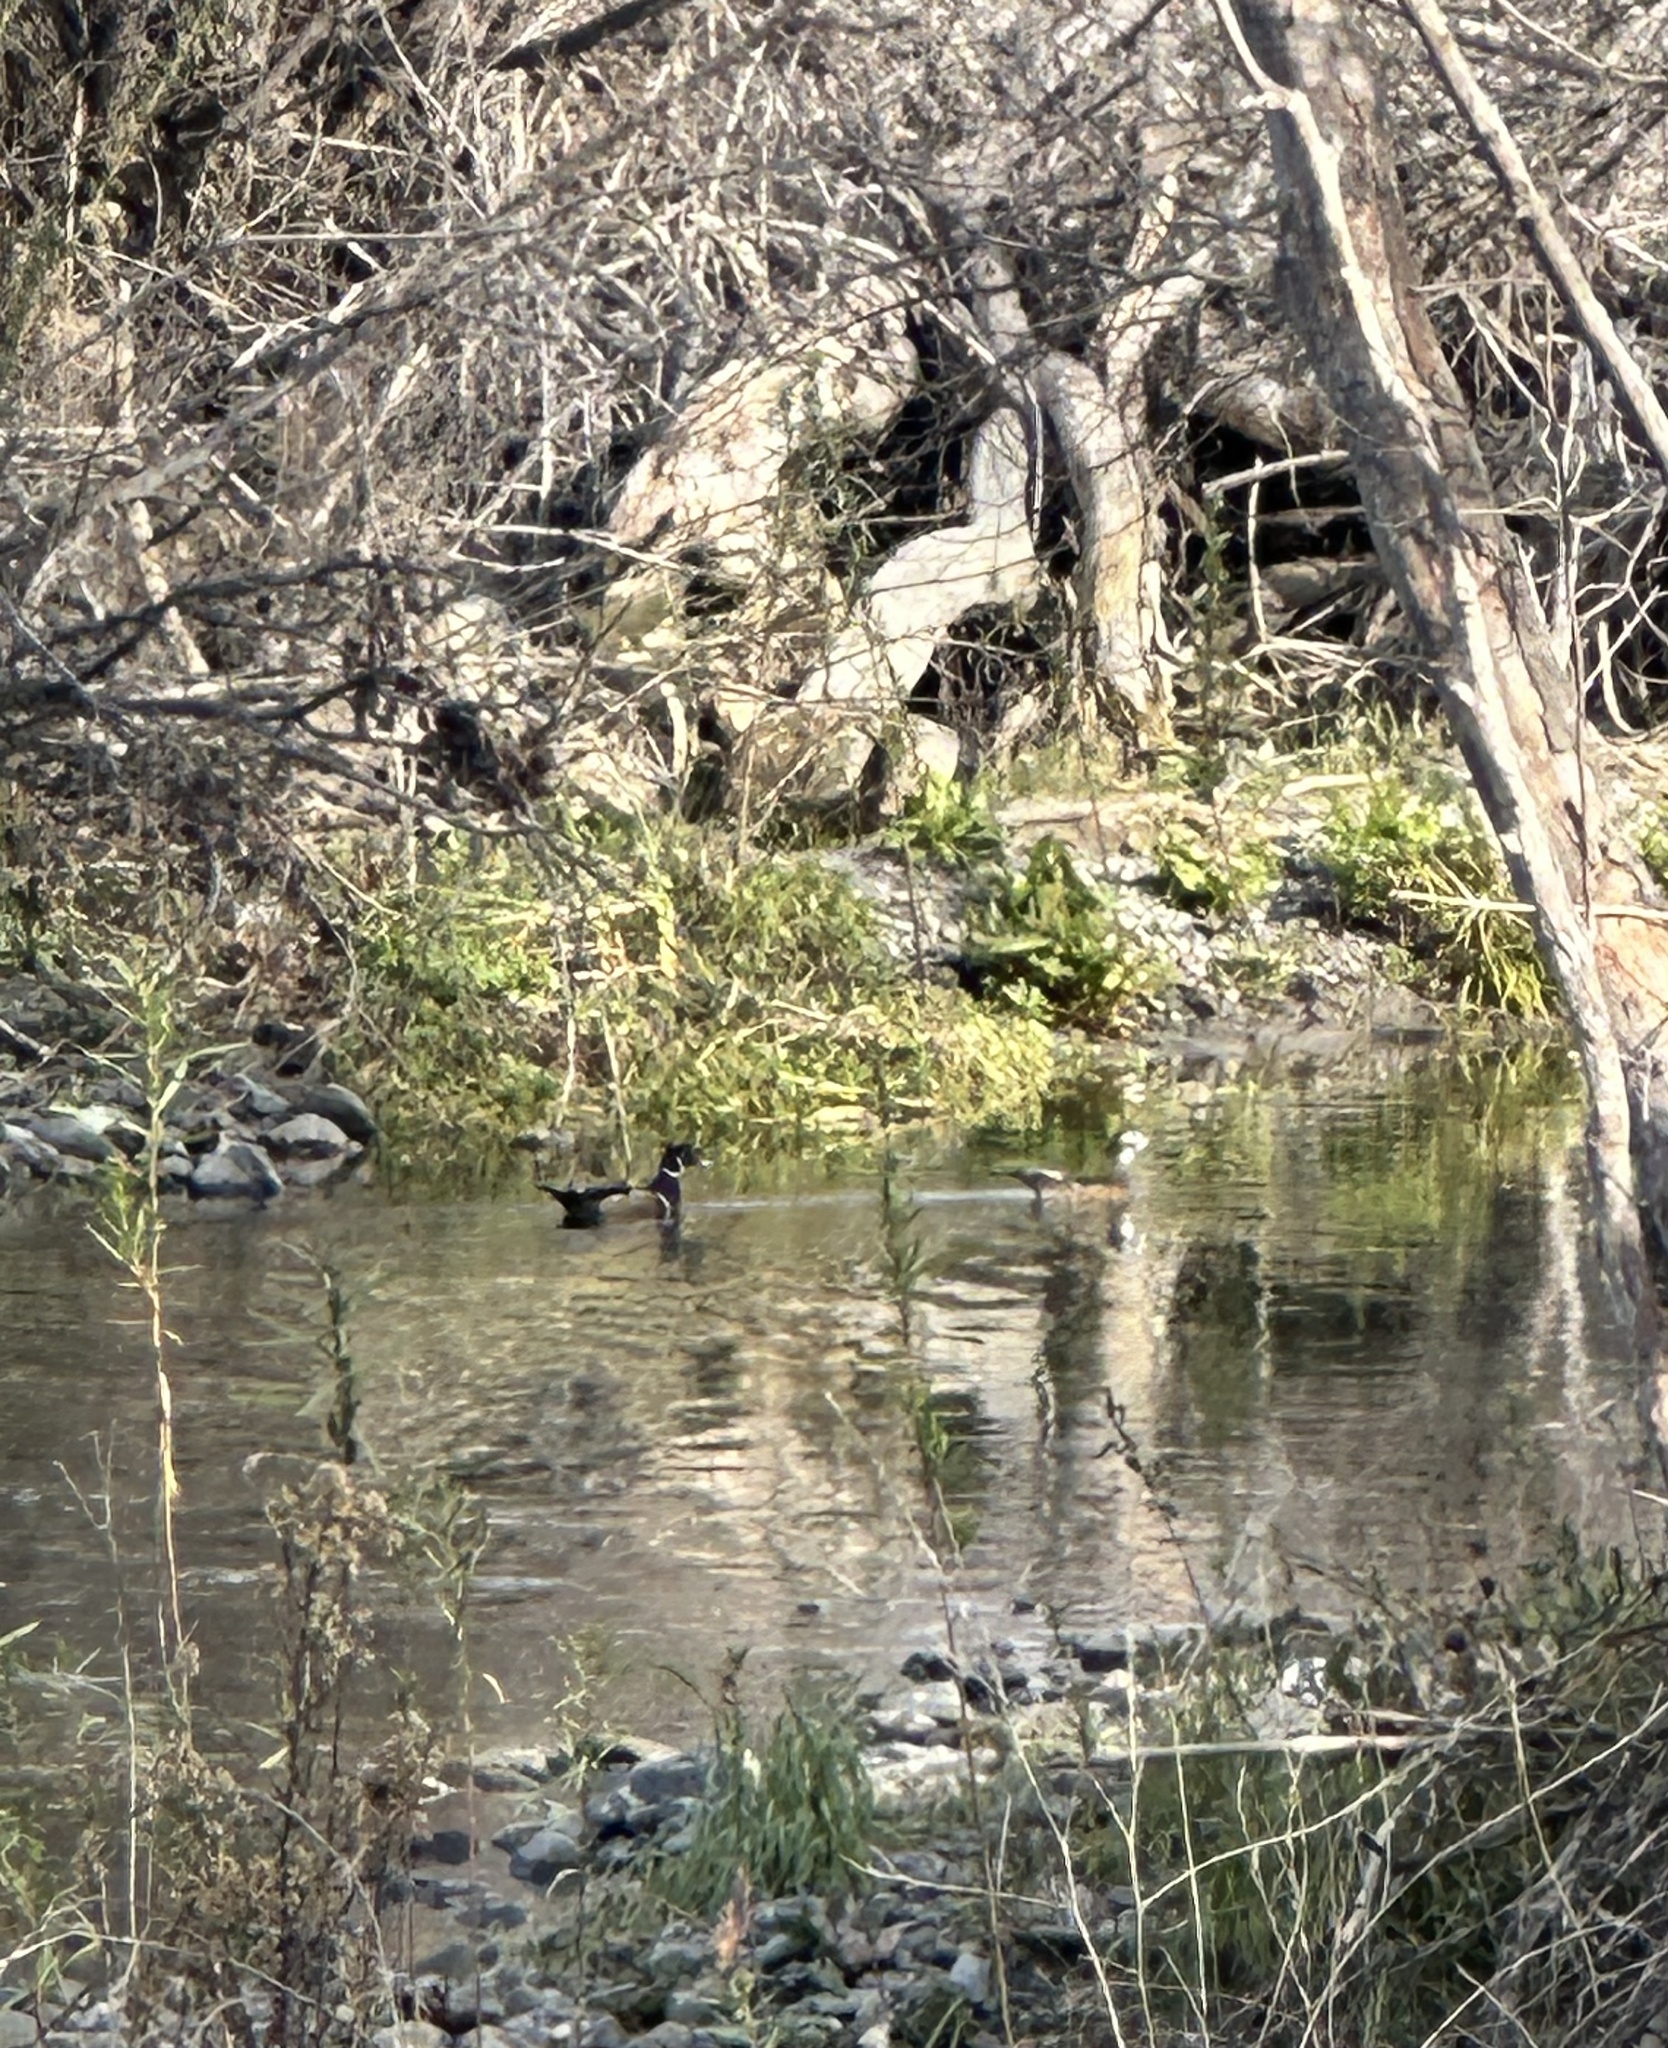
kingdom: Animalia
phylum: Chordata
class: Aves
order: Anseriformes
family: Anatidae
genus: Aix
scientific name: Aix sponsa
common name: Wood duck
